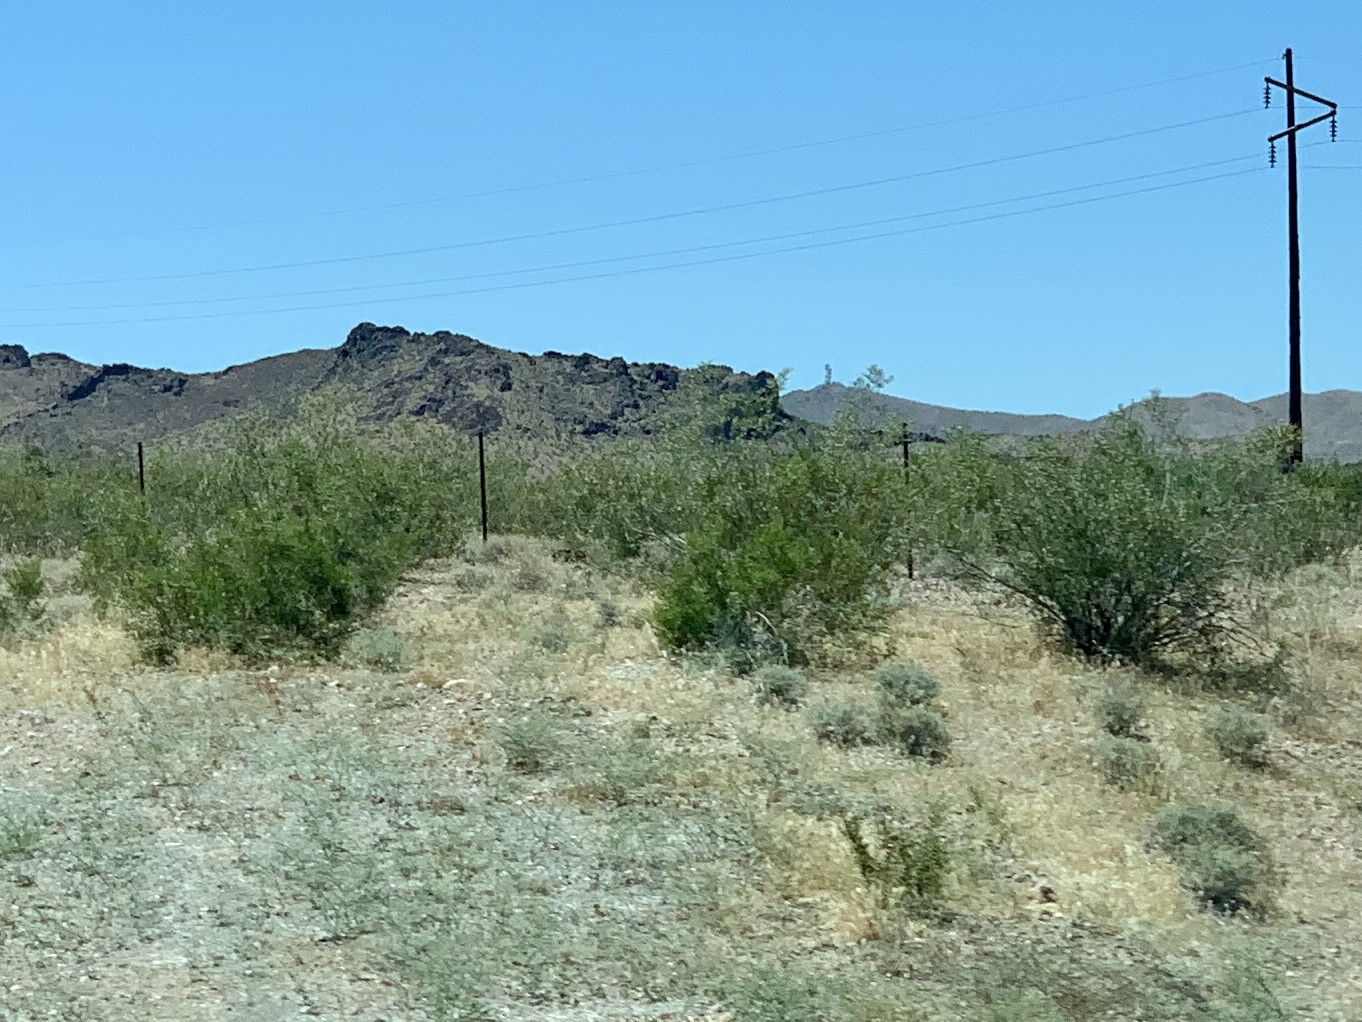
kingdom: Plantae
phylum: Tracheophyta
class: Magnoliopsida
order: Zygophyllales
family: Zygophyllaceae
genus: Larrea
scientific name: Larrea tridentata
